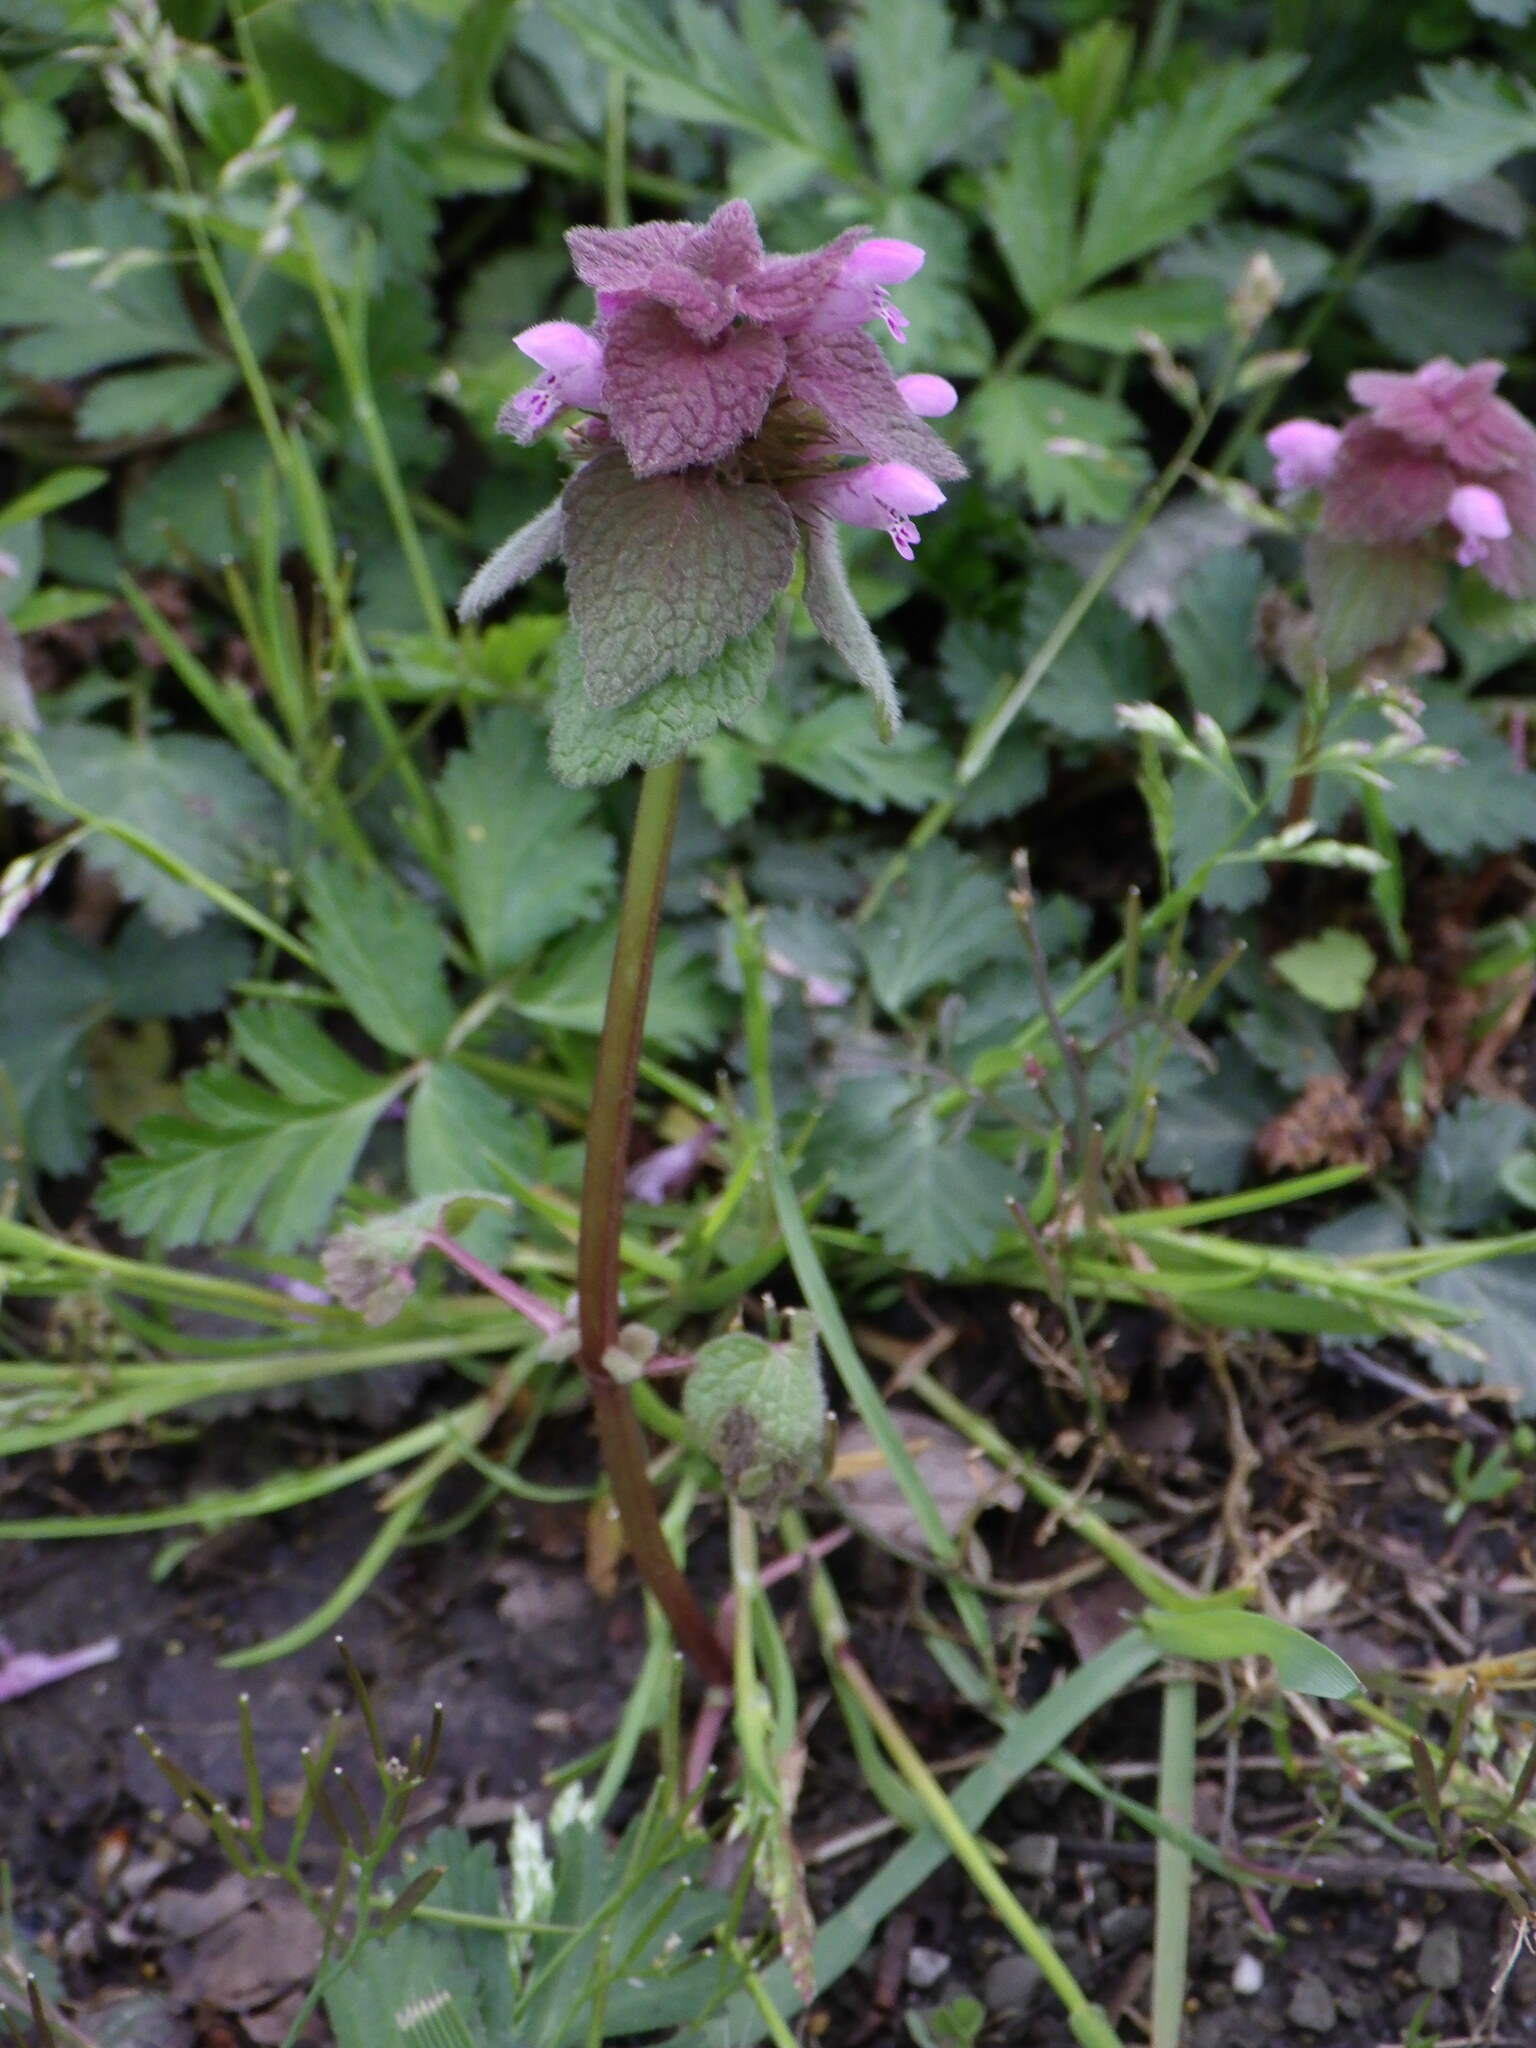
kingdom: Plantae
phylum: Tracheophyta
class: Magnoliopsida
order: Lamiales
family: Lamiaceae
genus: Lamium
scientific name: Lamium purpureum
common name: Red dead-nettle
